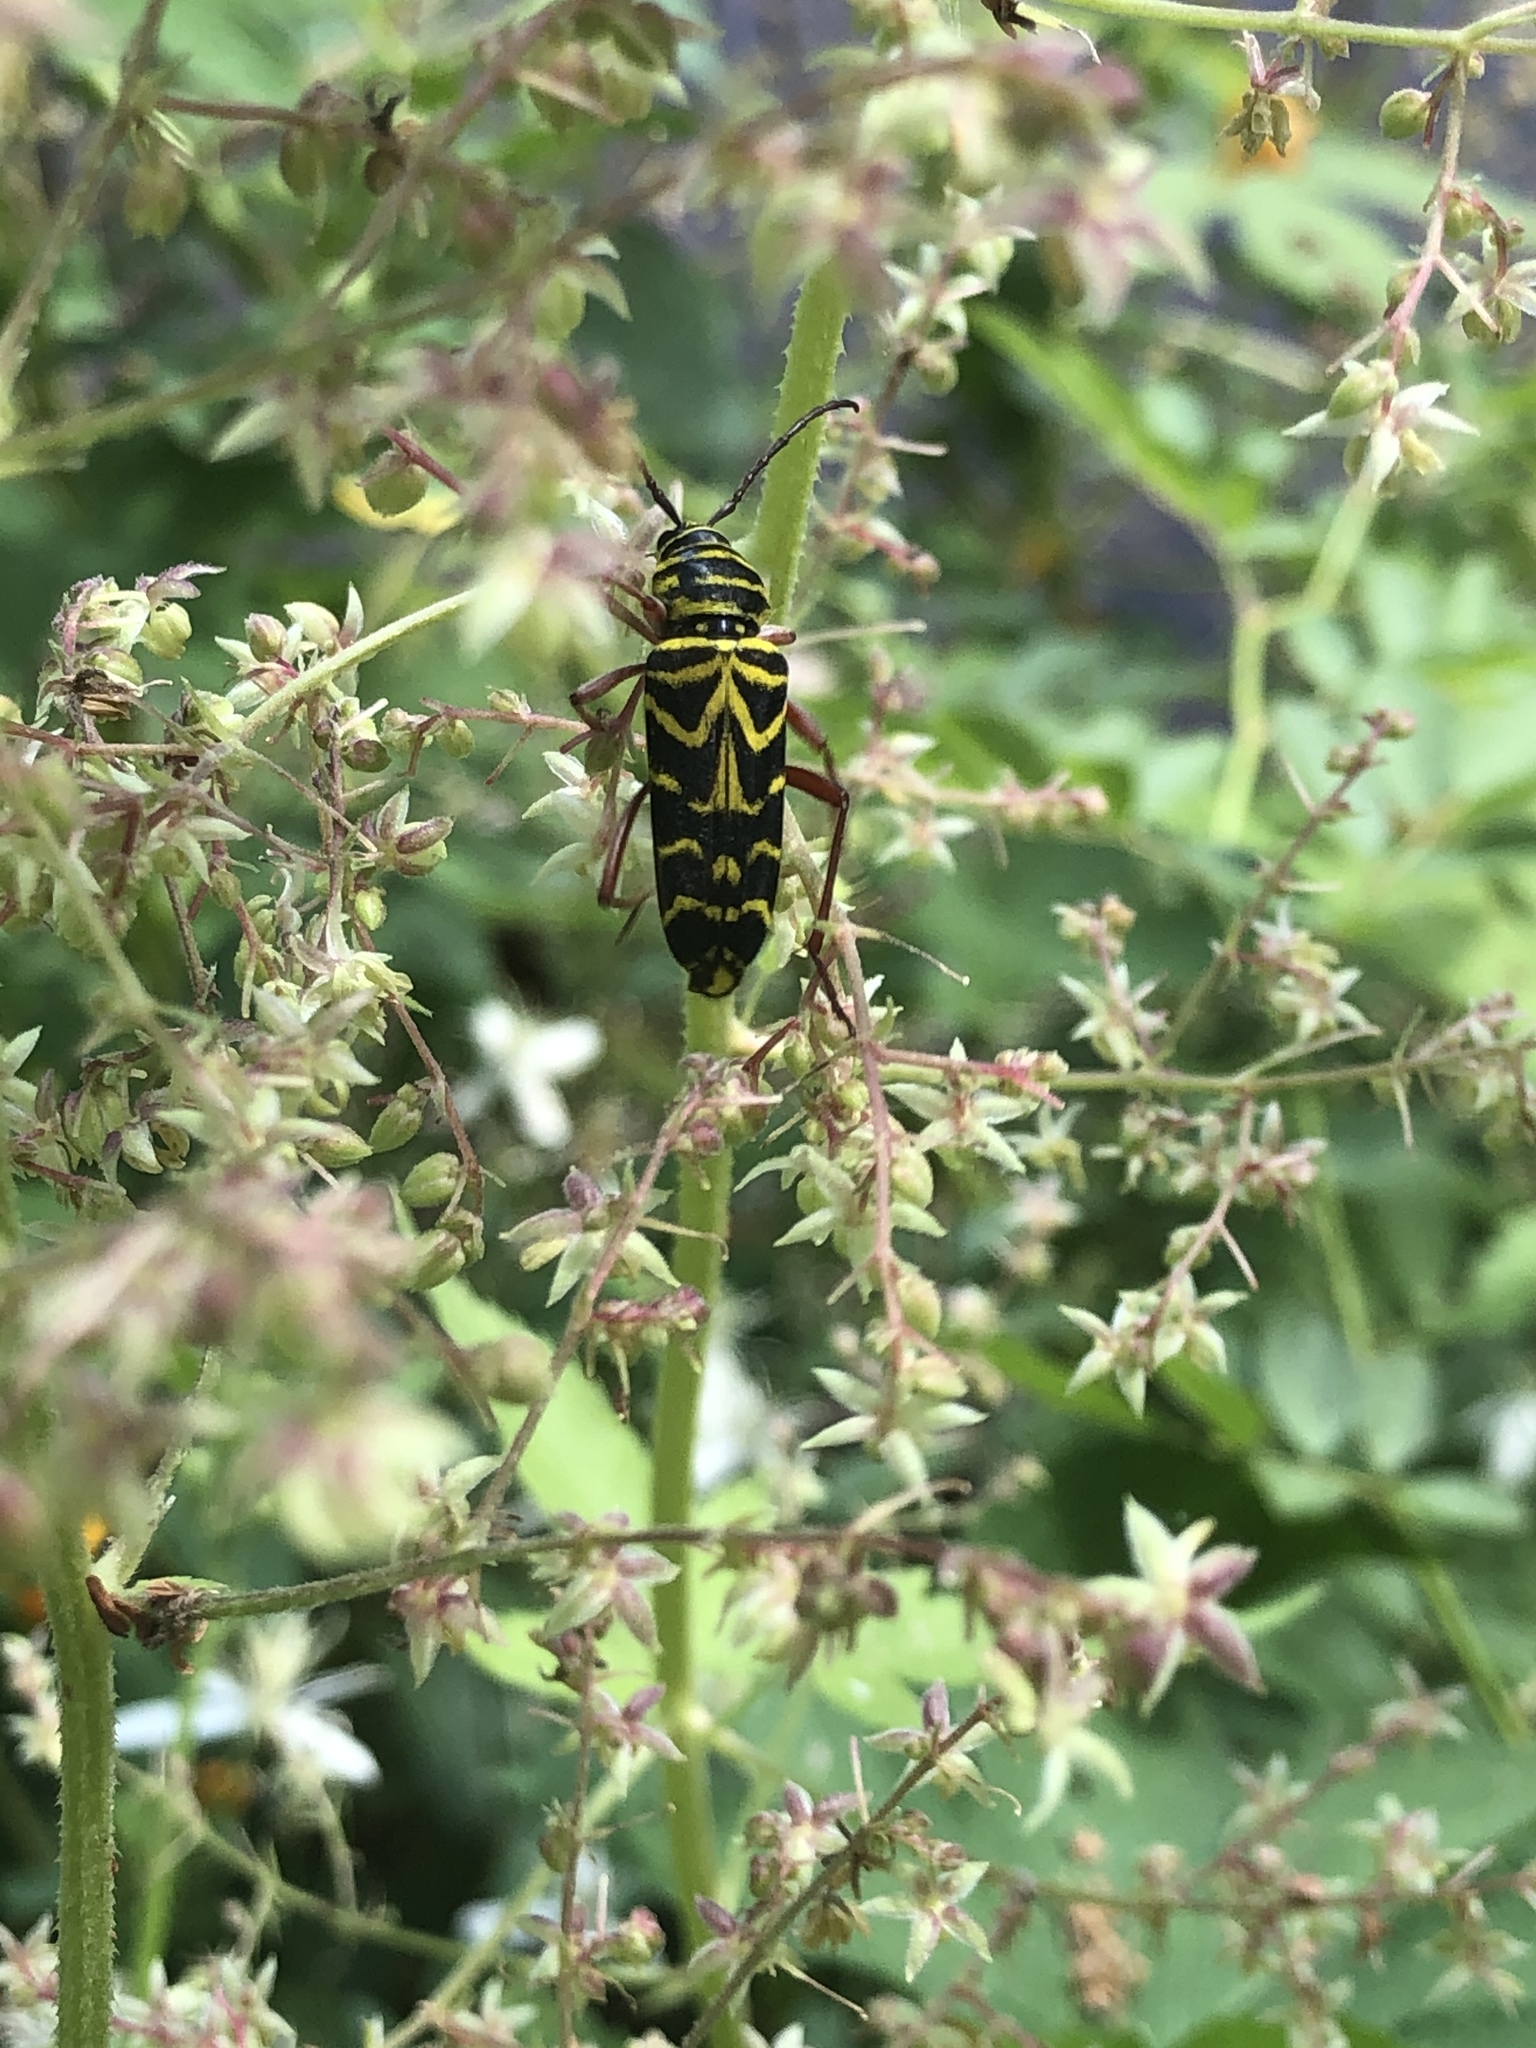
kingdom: Animalia
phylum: Arthropoda
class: Insecta
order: Coleoptera
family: Cerambycidae
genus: Megacyllene
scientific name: Megacyllene robiniae
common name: Locust borer
